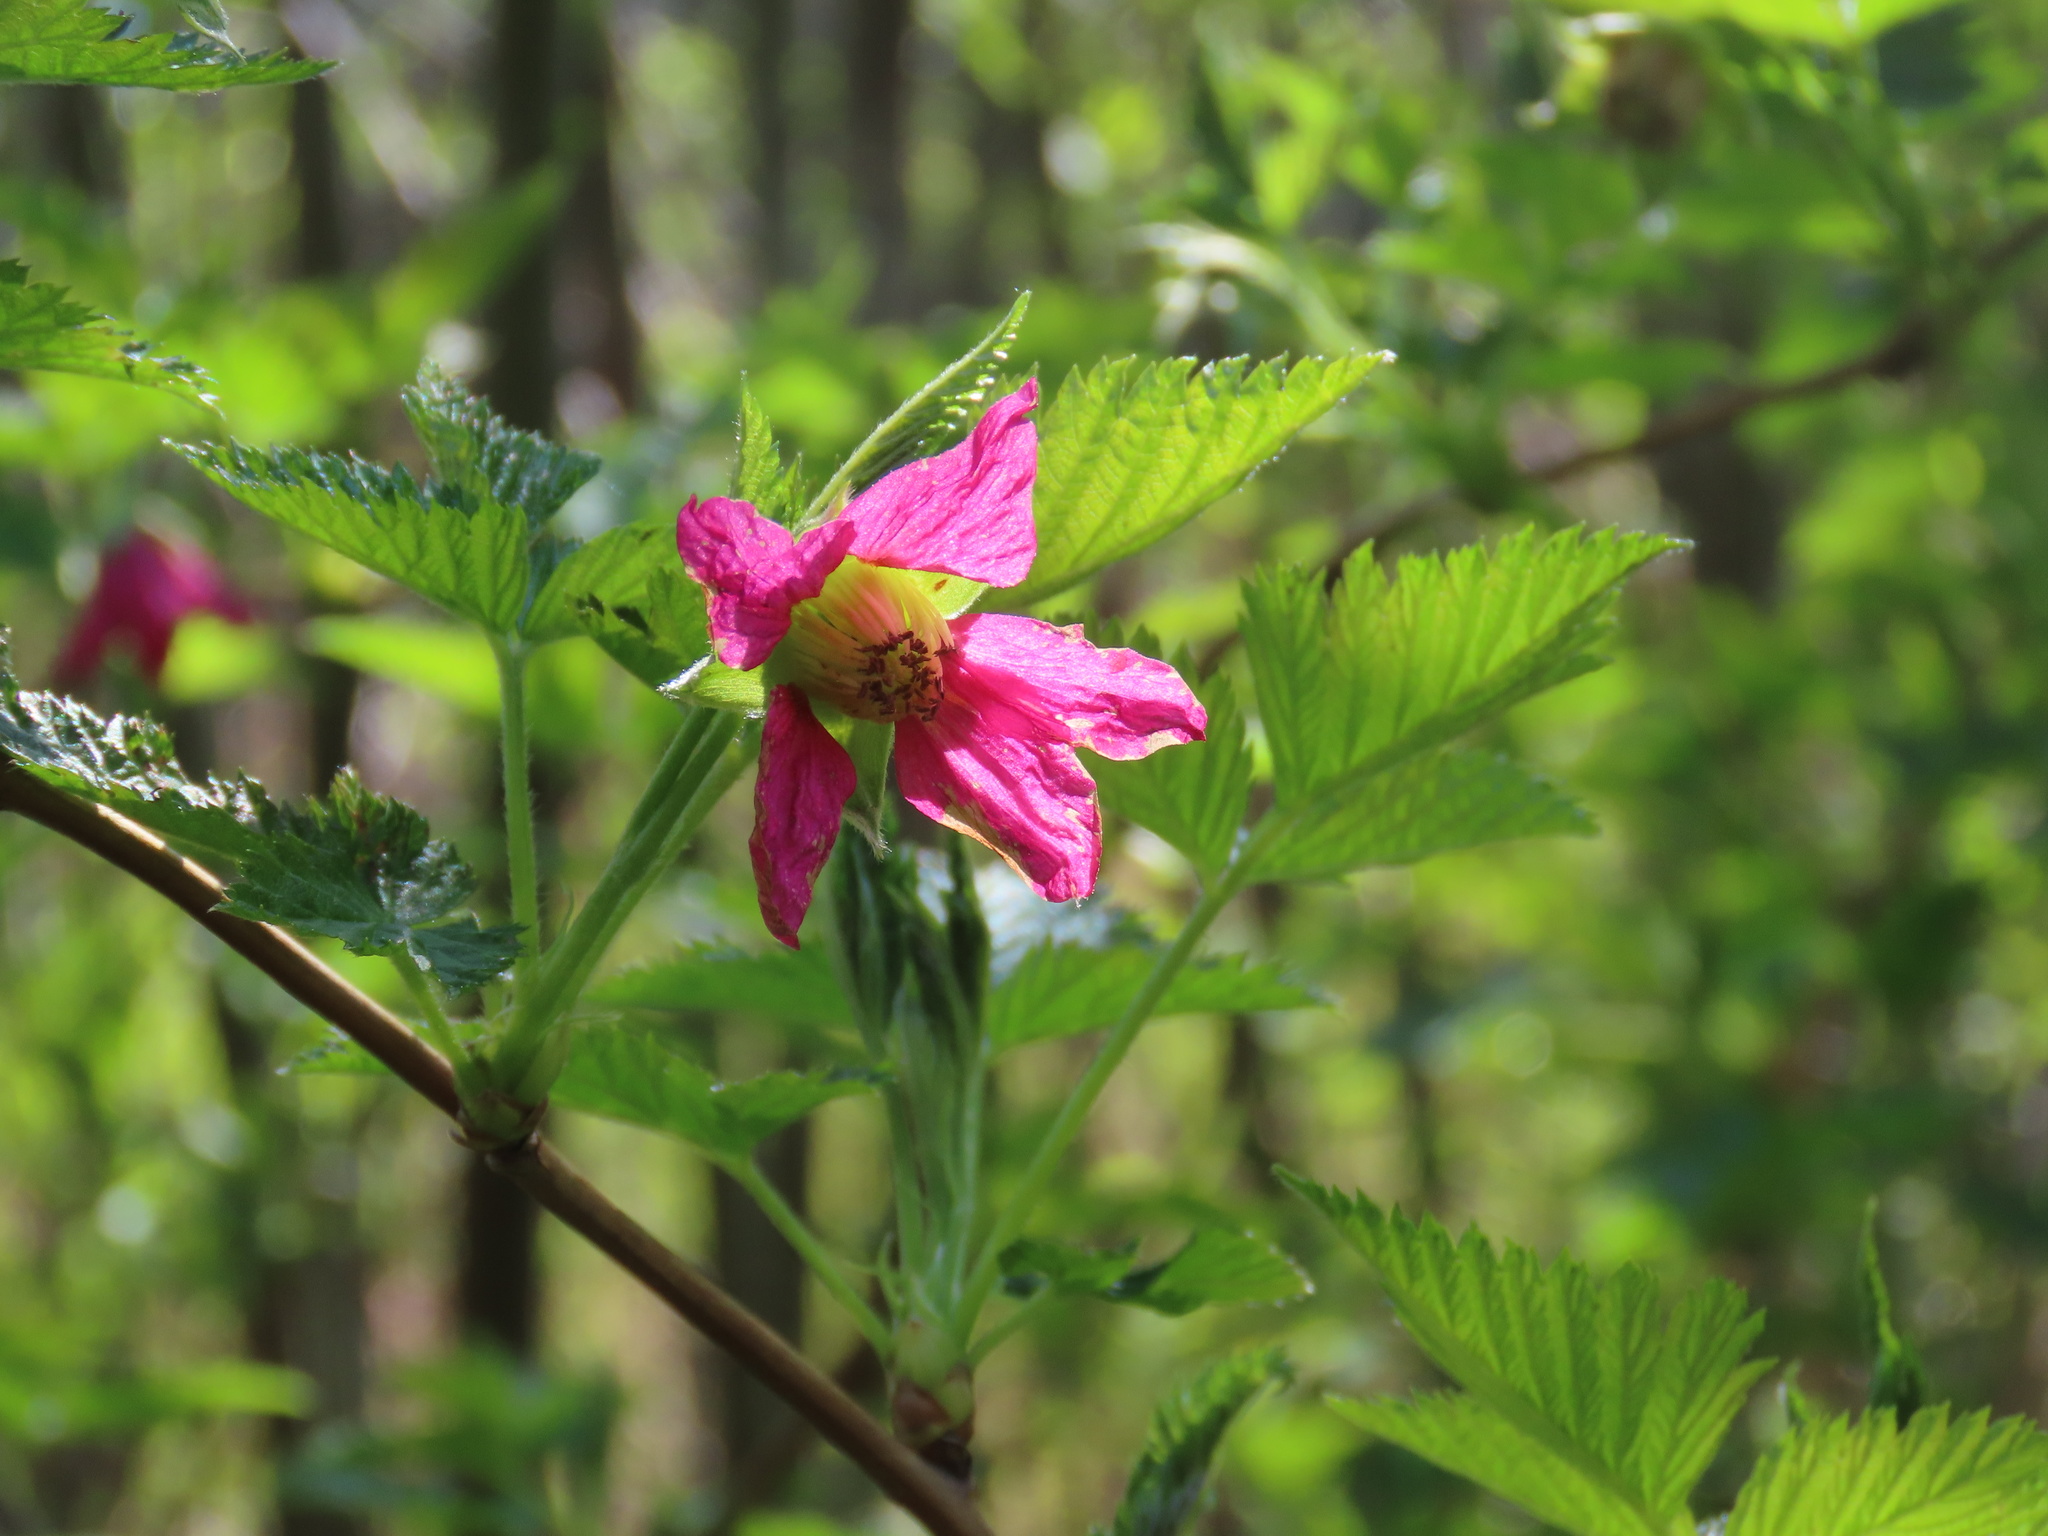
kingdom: Plantae
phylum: Tracheophyta
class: Magnoliopsida
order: Rosales
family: Rosaceae
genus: Rubus
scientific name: Rubus spectabilis
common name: Salmonberry
